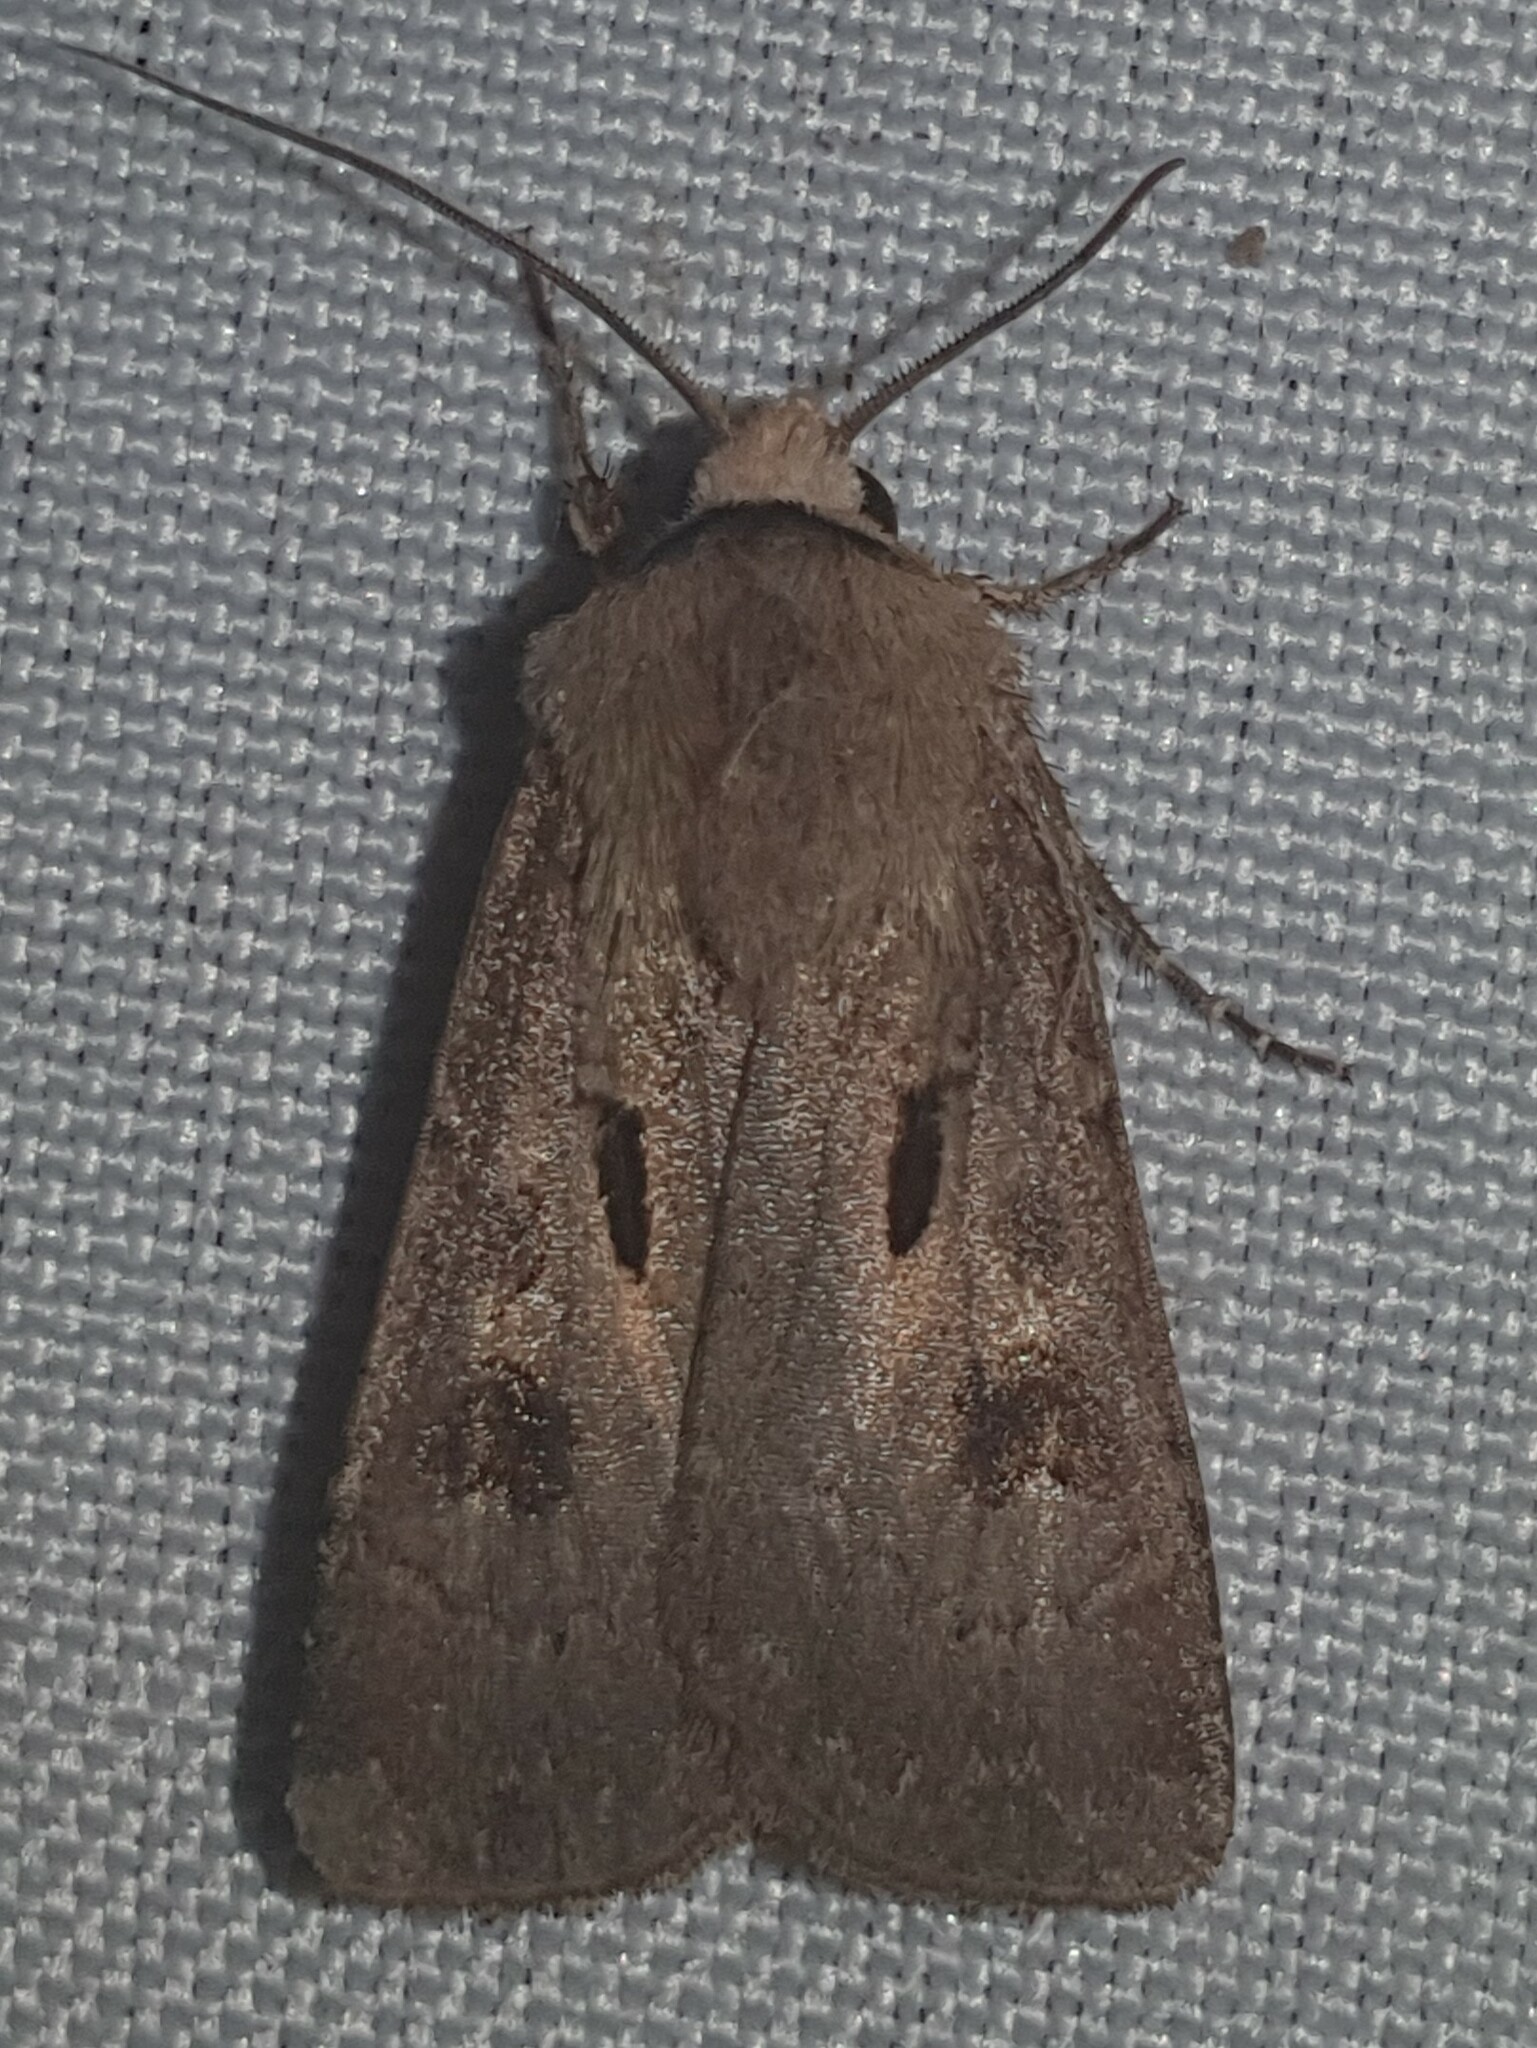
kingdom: Animalia
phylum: Arthropoda
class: Insecta
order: Lepidoptera
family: Noctuidae
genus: Agrotis
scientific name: Agrotis exclamationis
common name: Heart and dart
